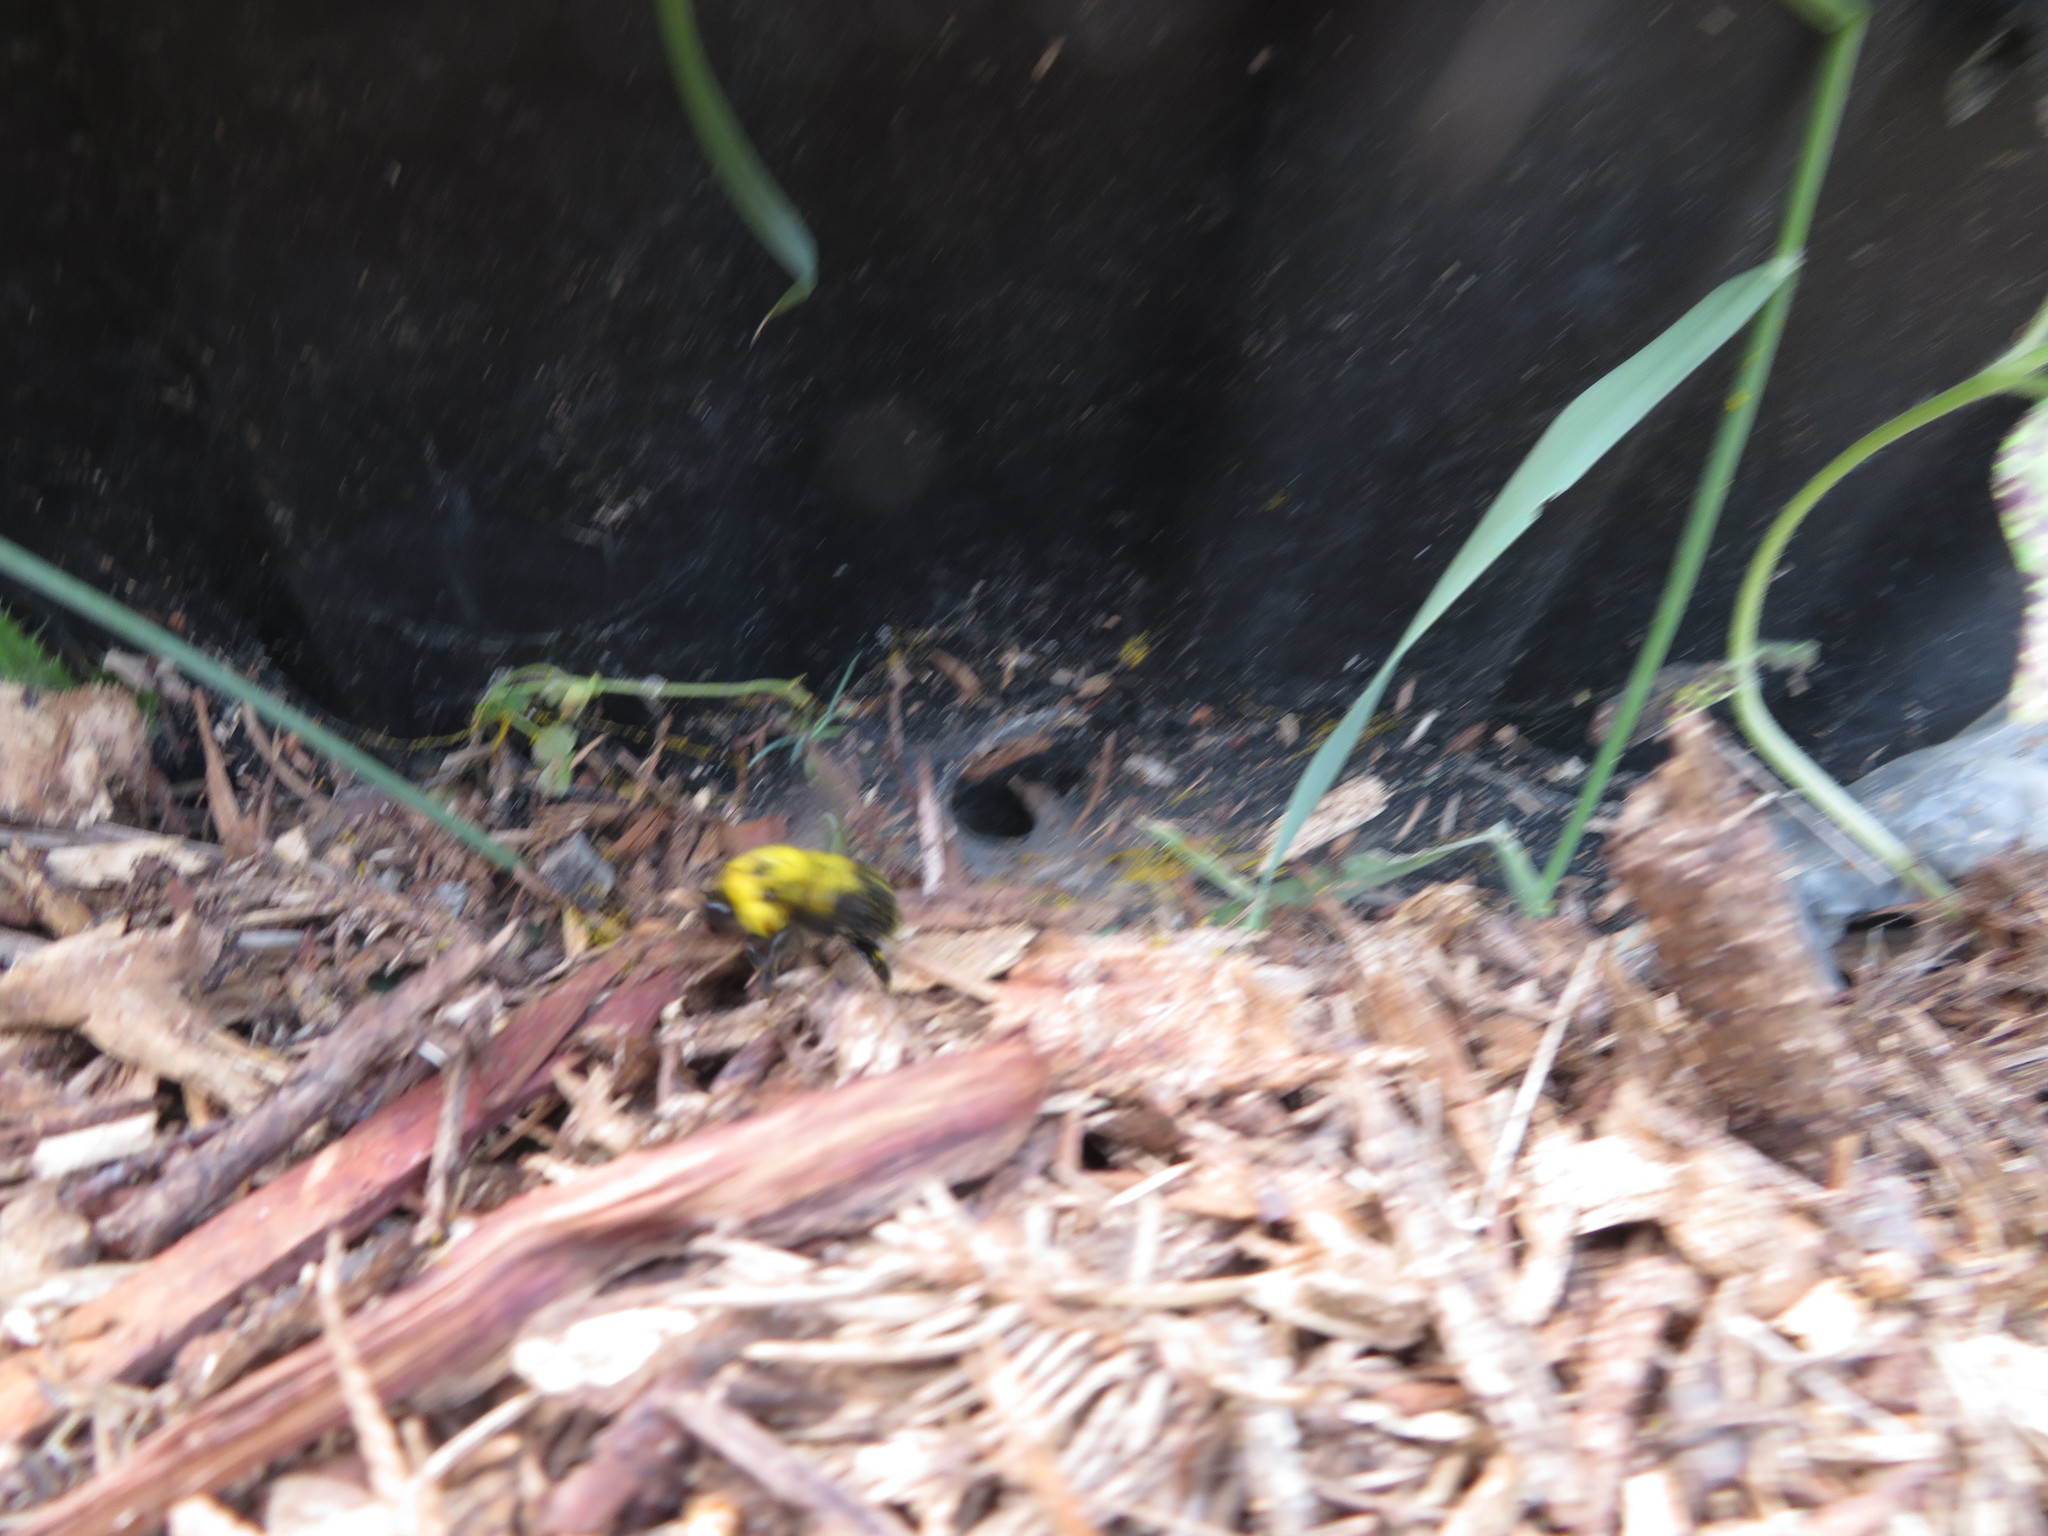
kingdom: Animalia
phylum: Arthropoda
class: Insecta
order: Hymenoptera
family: Apidae
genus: Bombus
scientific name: Bombus bimaculatus
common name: Two-spotted bumble bee
